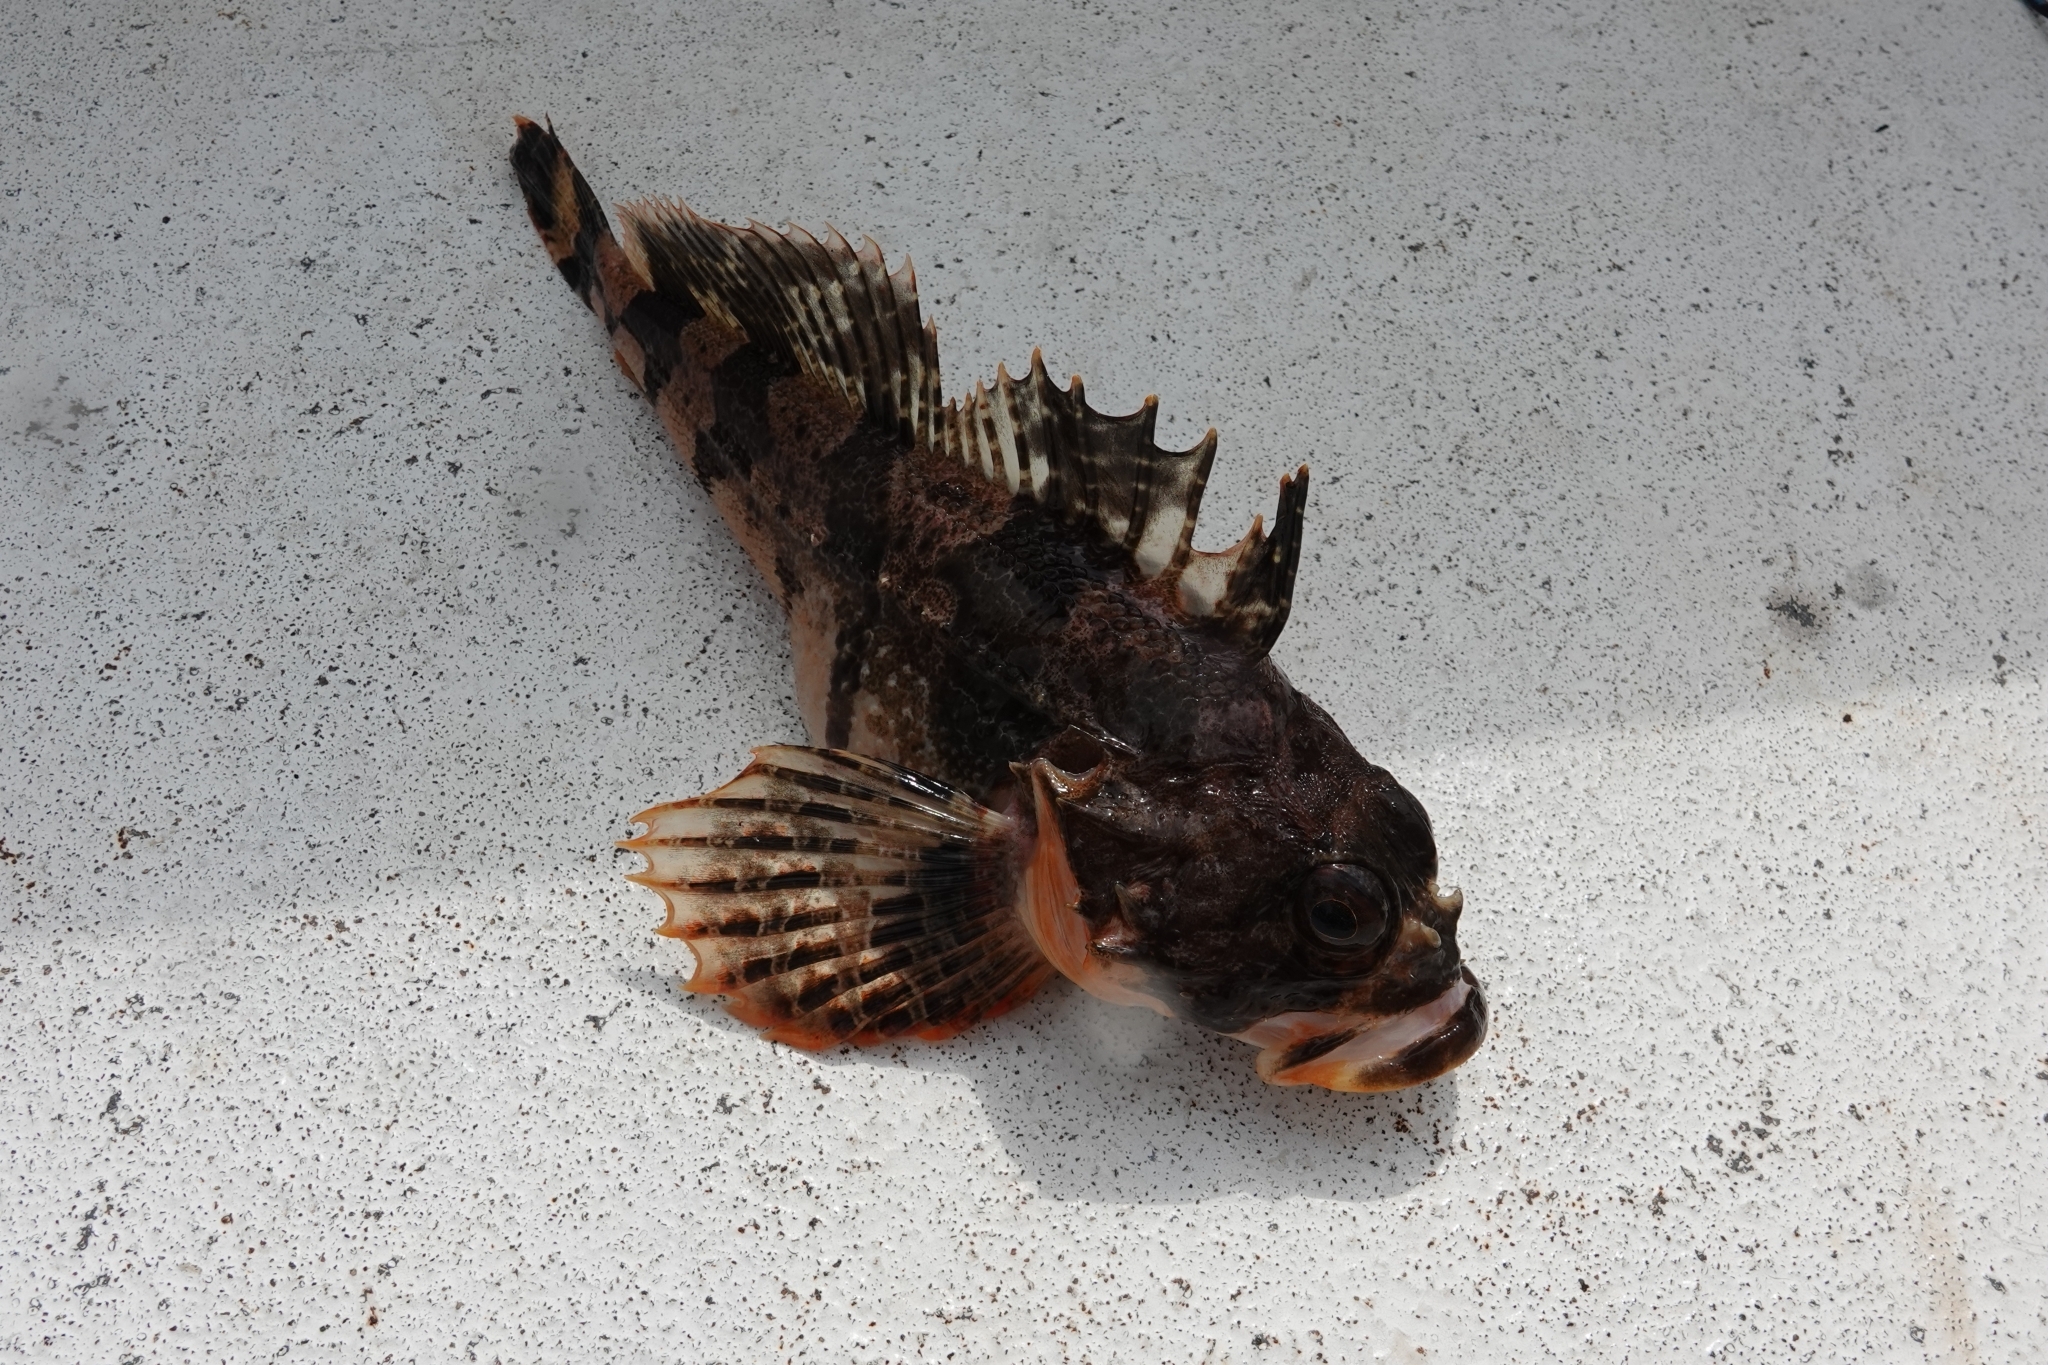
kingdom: Animalia
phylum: Chordata
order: Scorpaeniformes
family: Cottidae
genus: Hemilepidotus
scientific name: Hemilepidotus papilio
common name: Butterfly sculpin
